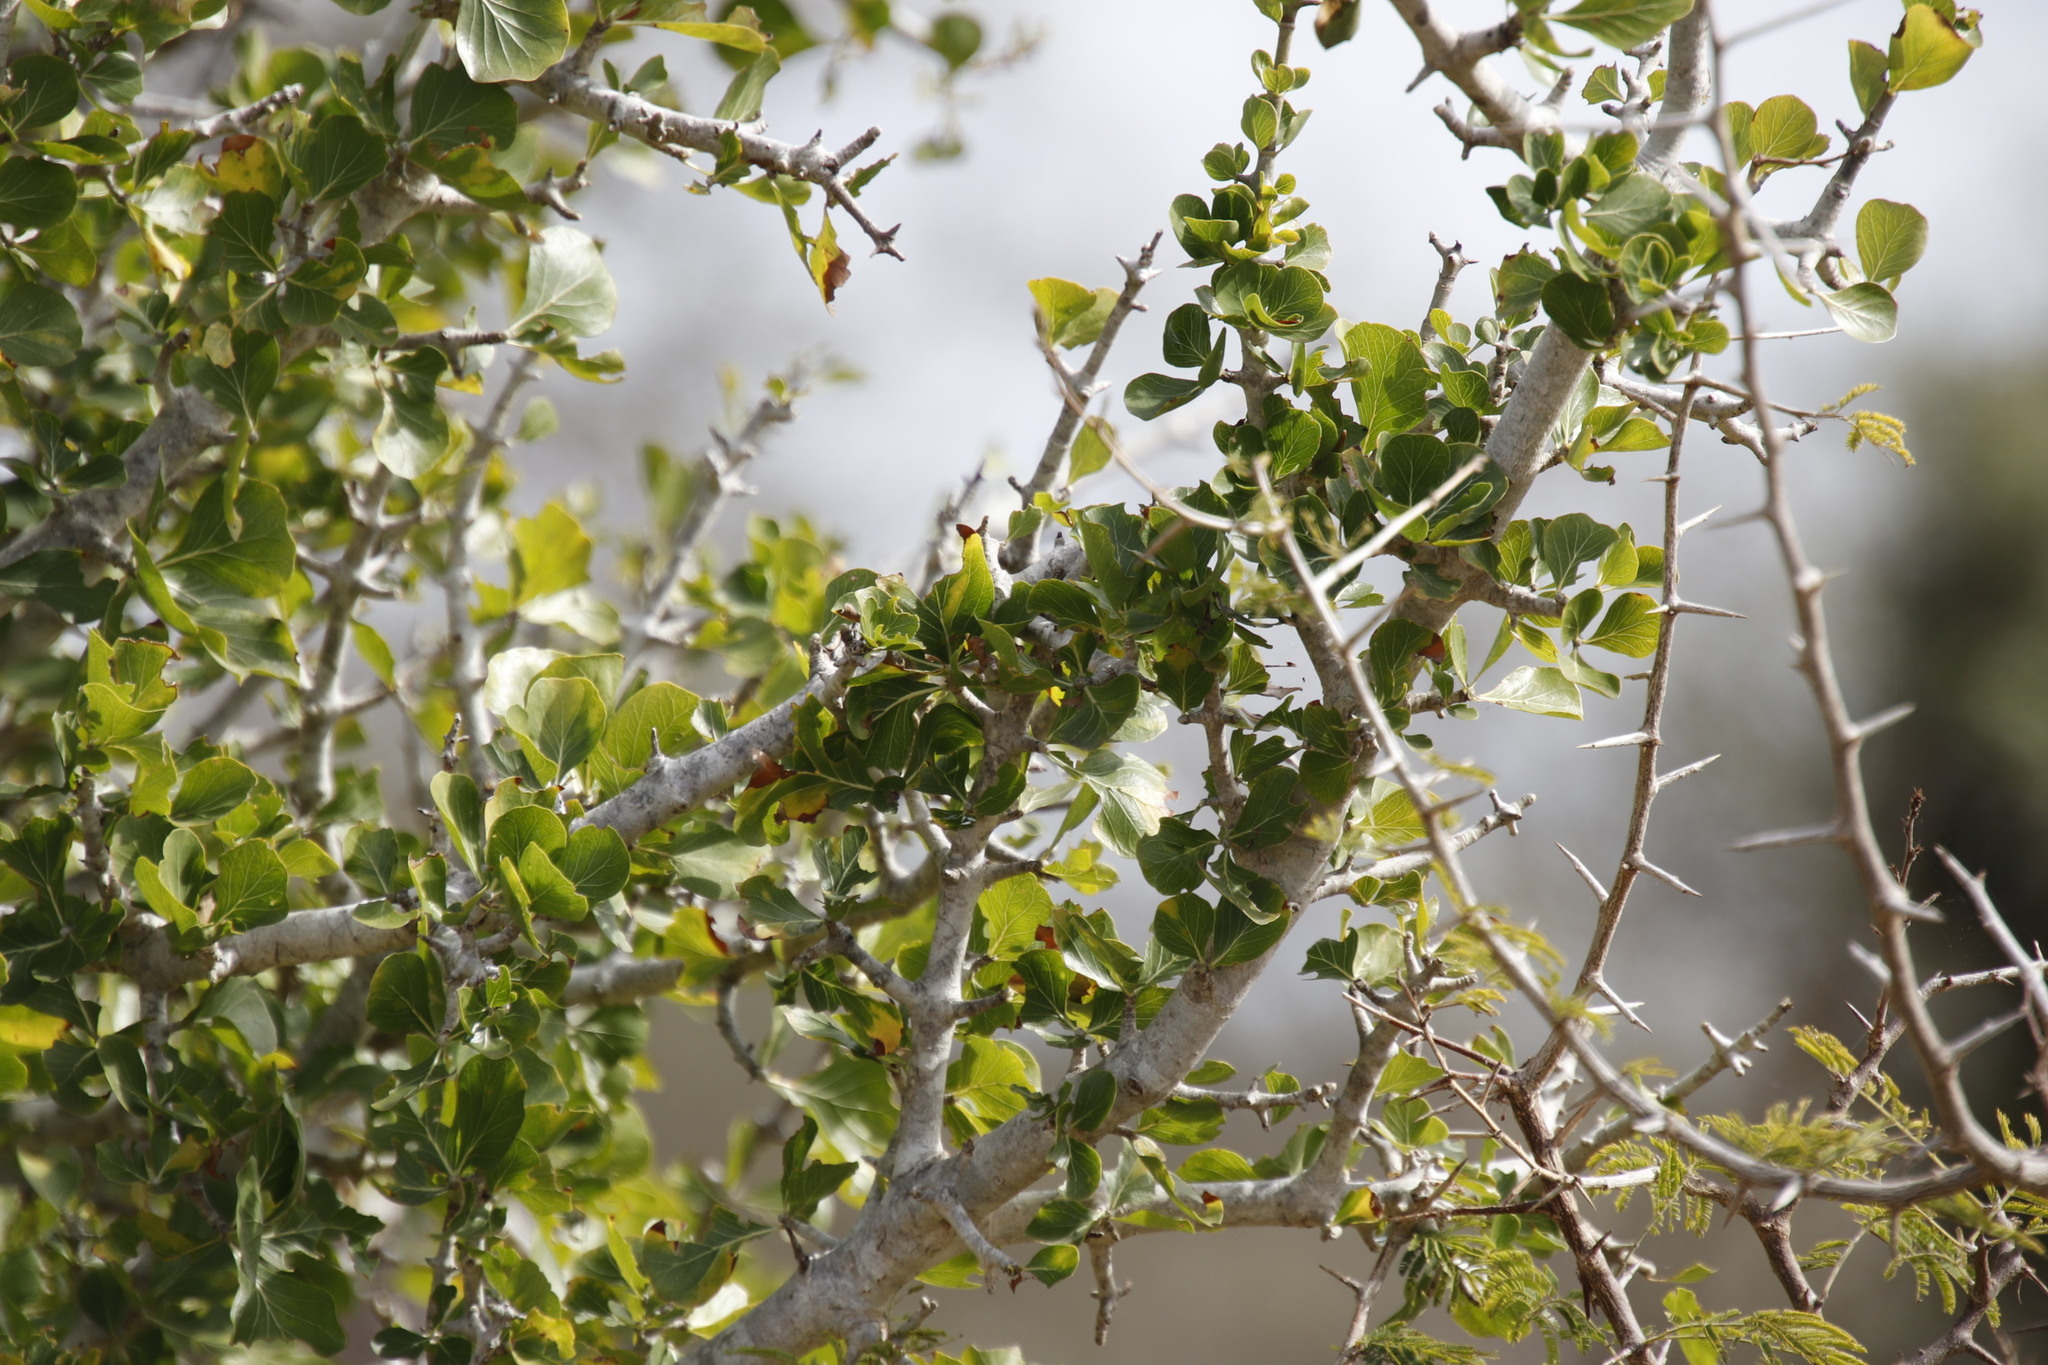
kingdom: Plantae
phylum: Tracheophyta
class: Magnoliopsida
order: Gentianales
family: Rubiaceae
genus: Gardenia
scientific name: Gardenia volkensii
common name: Common gardenia
